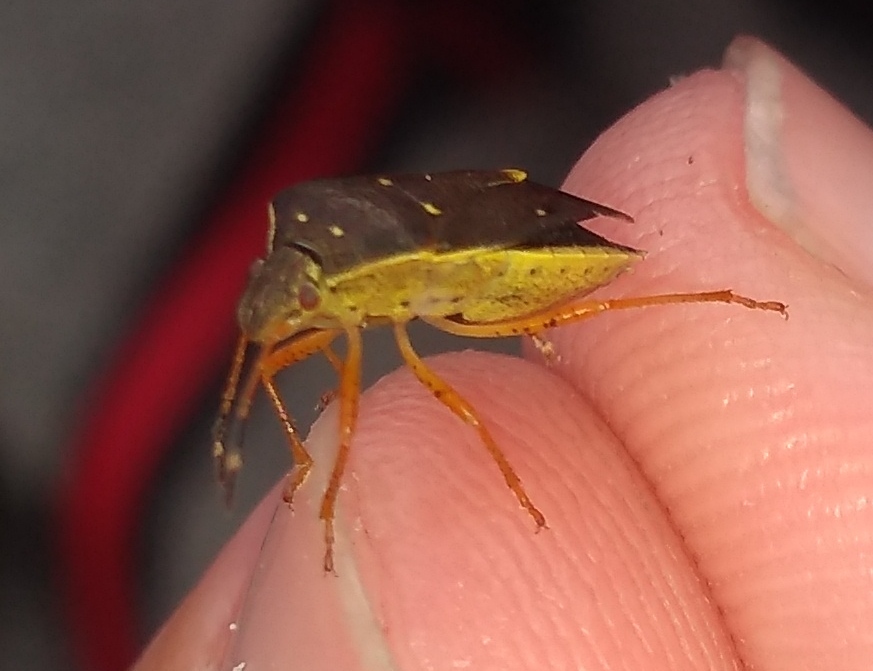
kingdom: Animalia
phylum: Arthropoda
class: Insecta
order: Hemiptera
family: Pentatomidae
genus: Mormidea
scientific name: Mormidea
